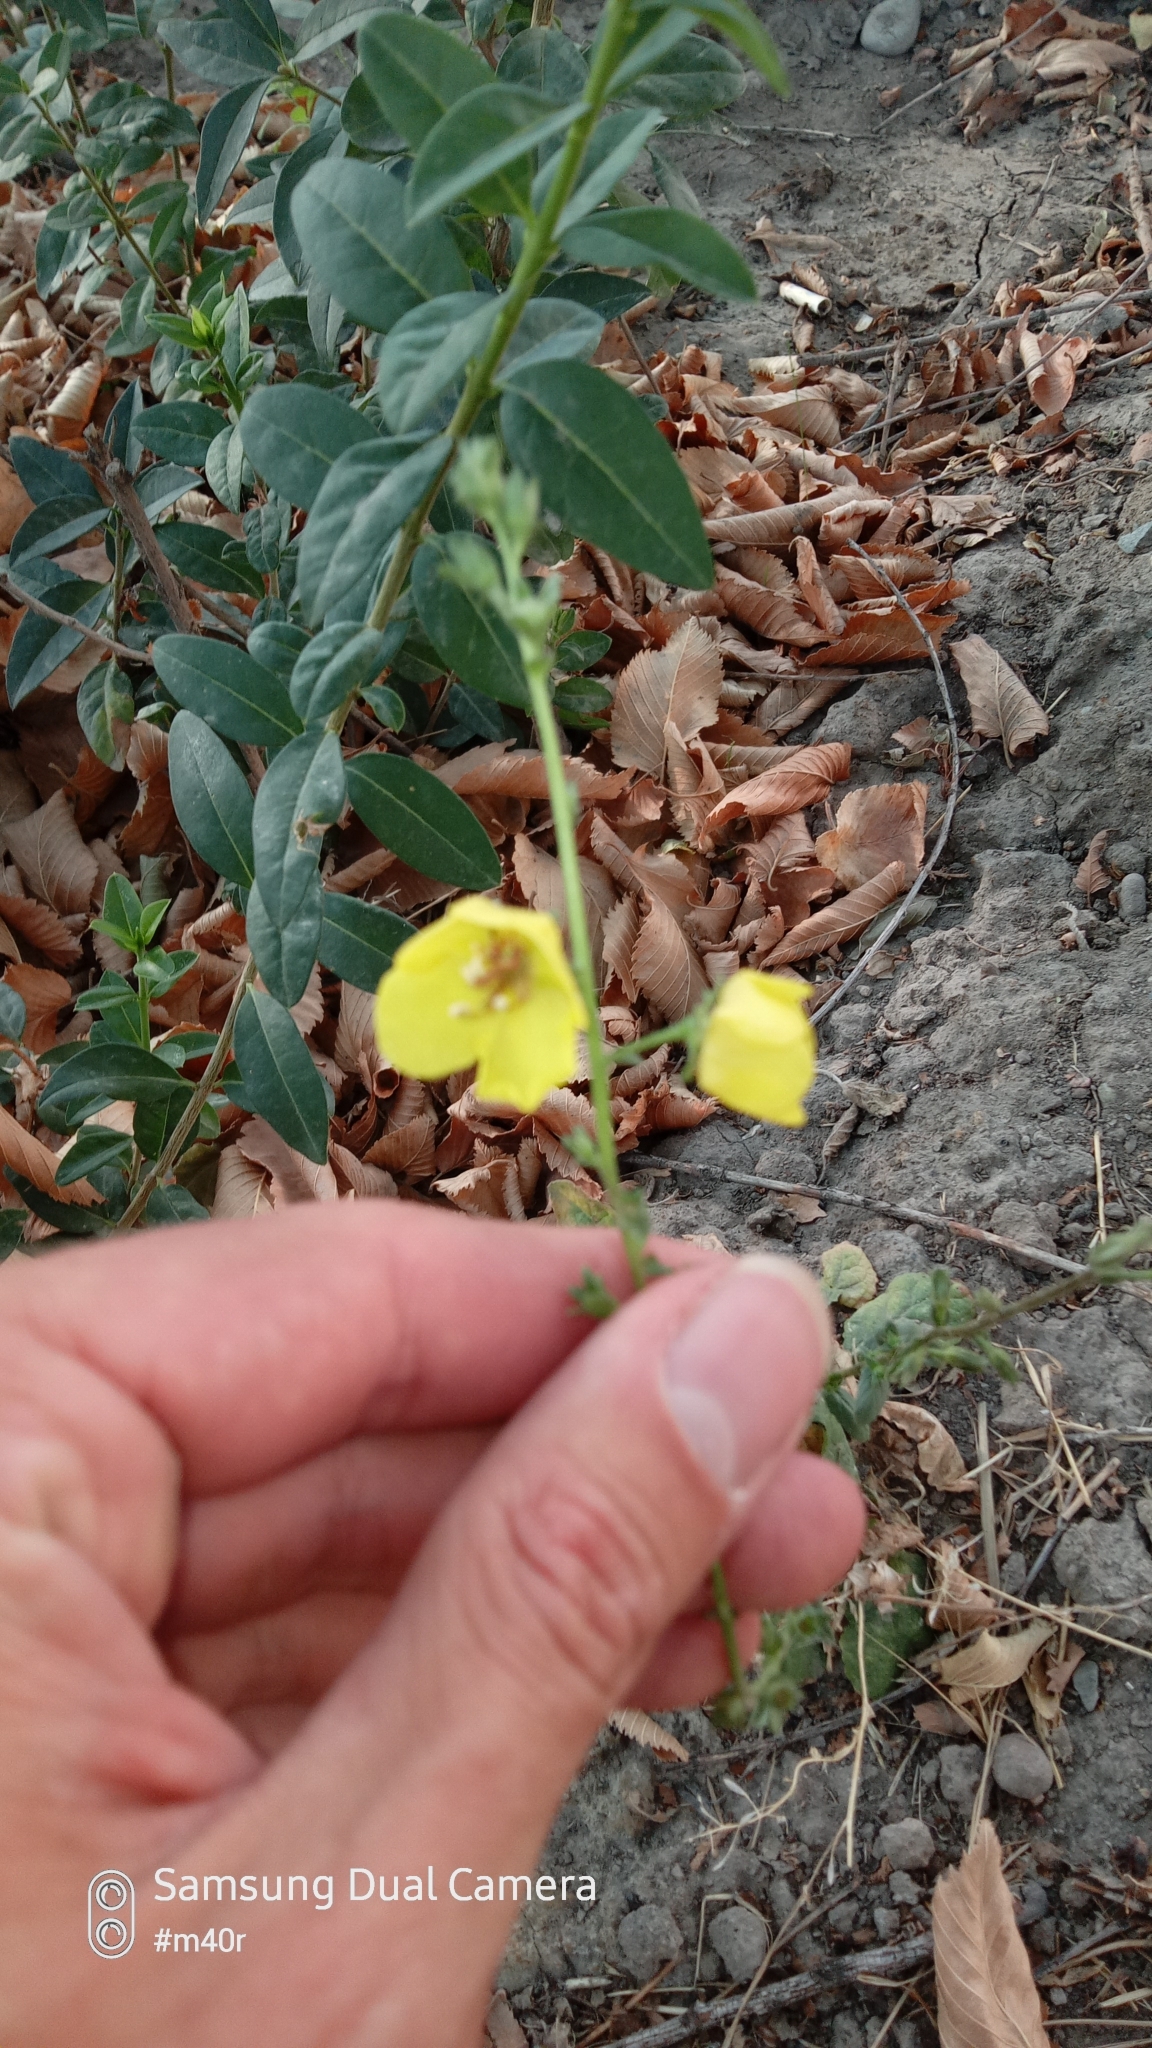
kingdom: Plantae
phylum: Tracheophyta
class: Magnoliopsida
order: Lamiales
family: Scrophulariaceae
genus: Verbascum
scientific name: Verbascum blattaria
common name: Moth mullein
